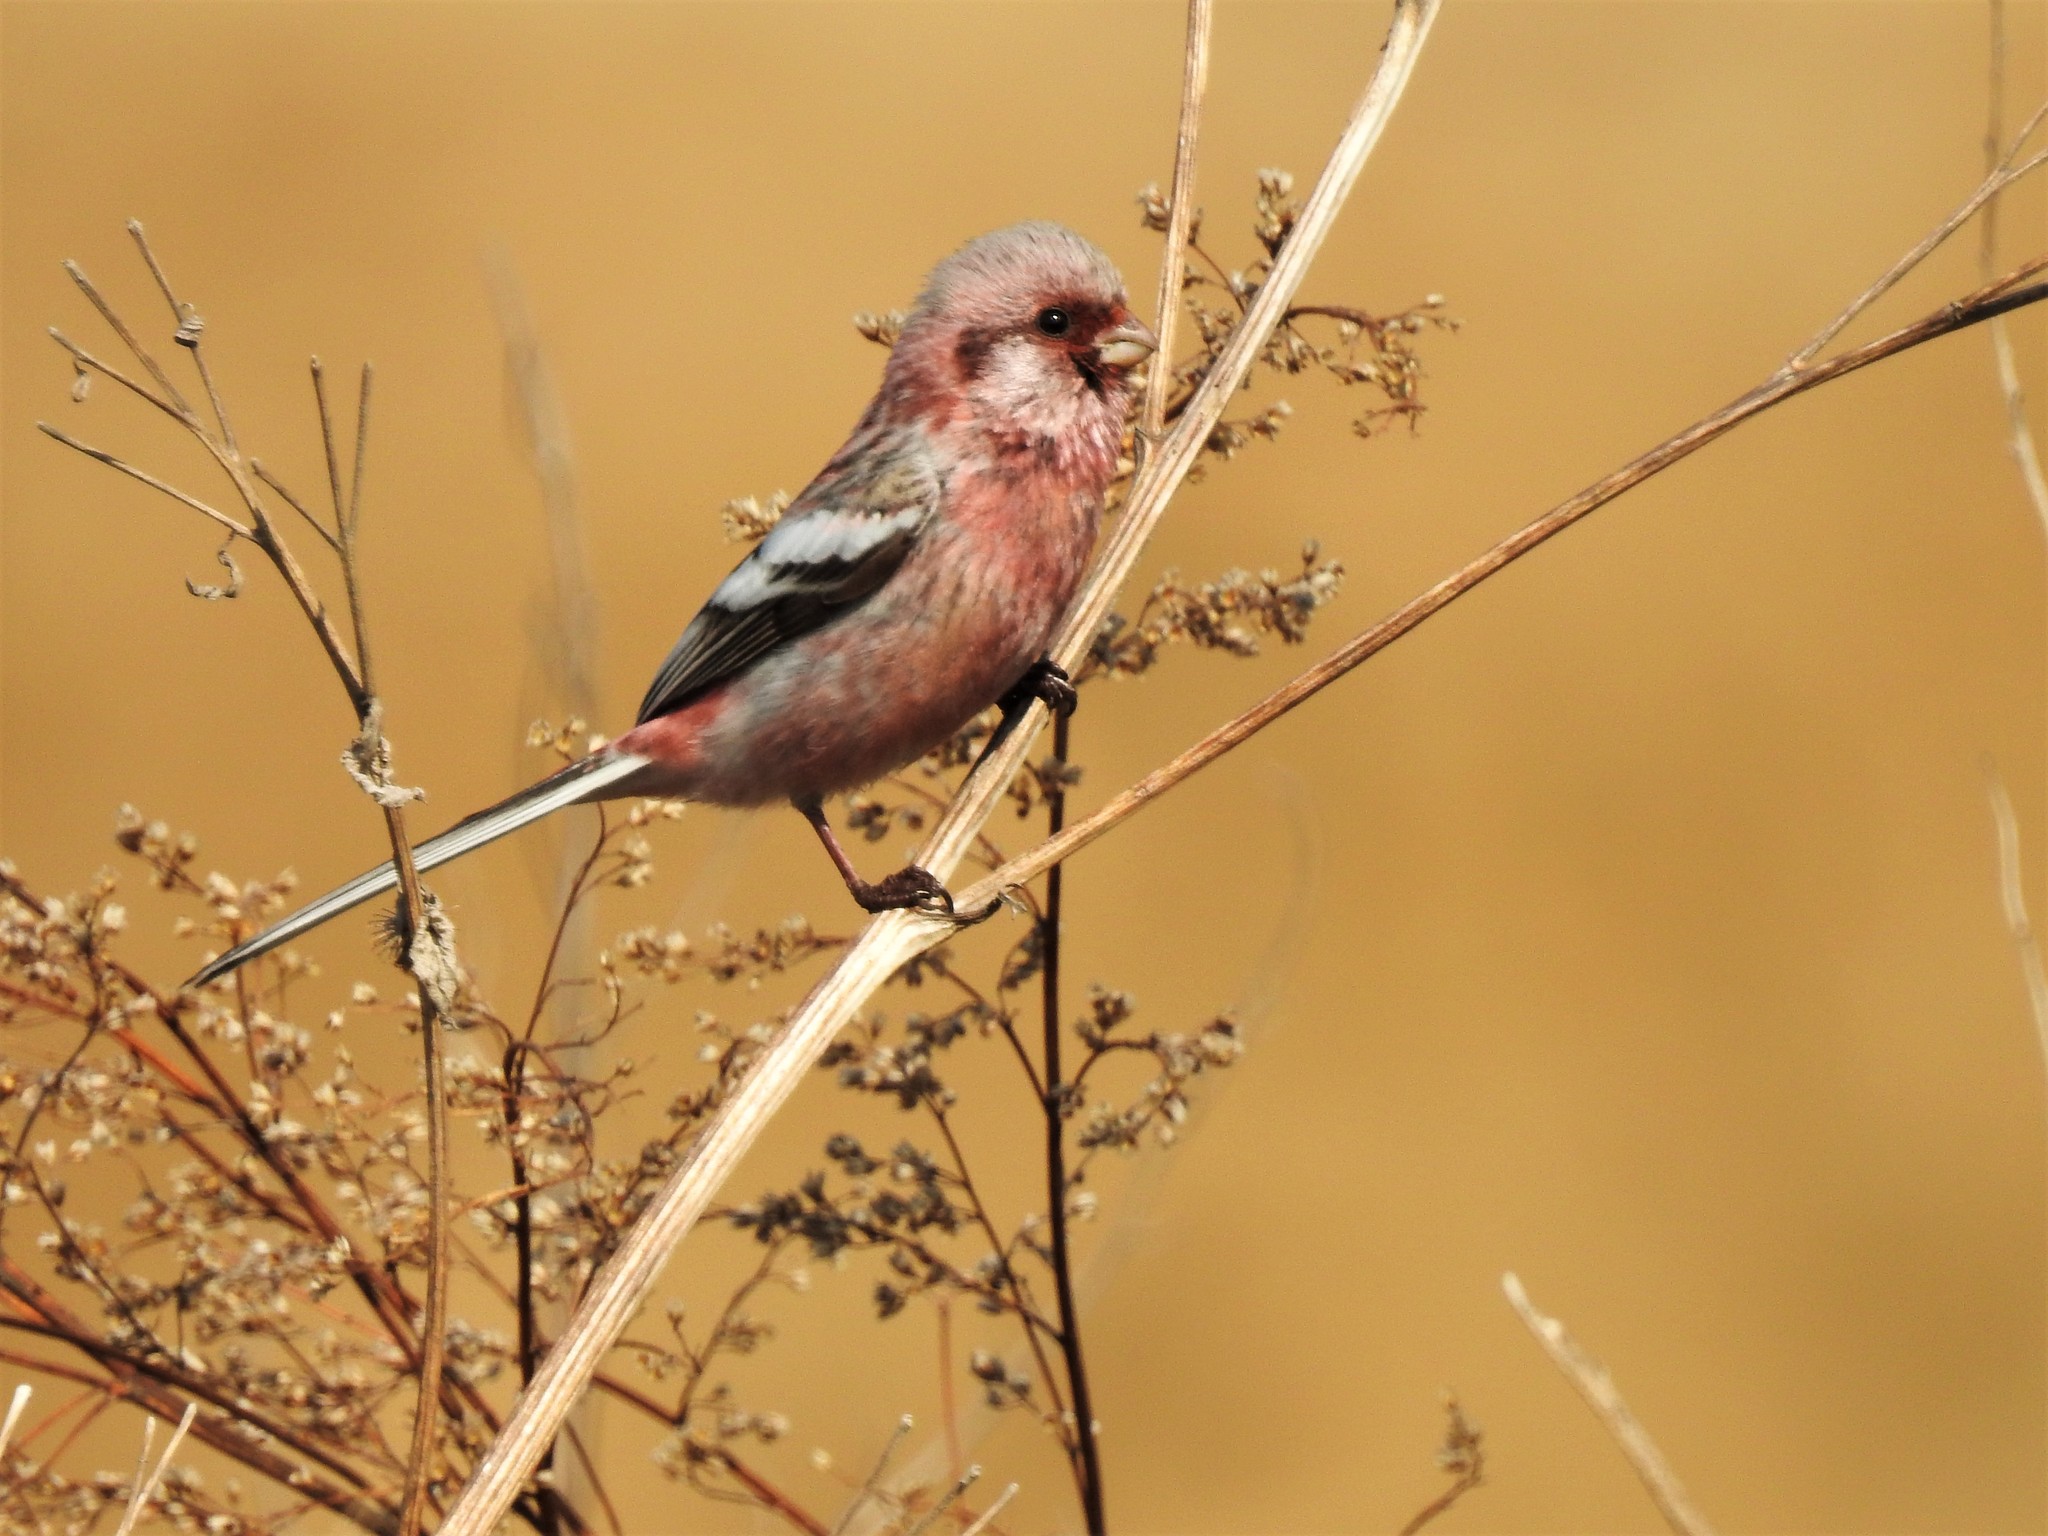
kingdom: Animalia
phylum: Chordata
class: Aves
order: Passeriformes
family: Fringillidae
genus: Carpodacus
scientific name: Carpodacus sibiricus
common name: Long-tailed rosefinch
